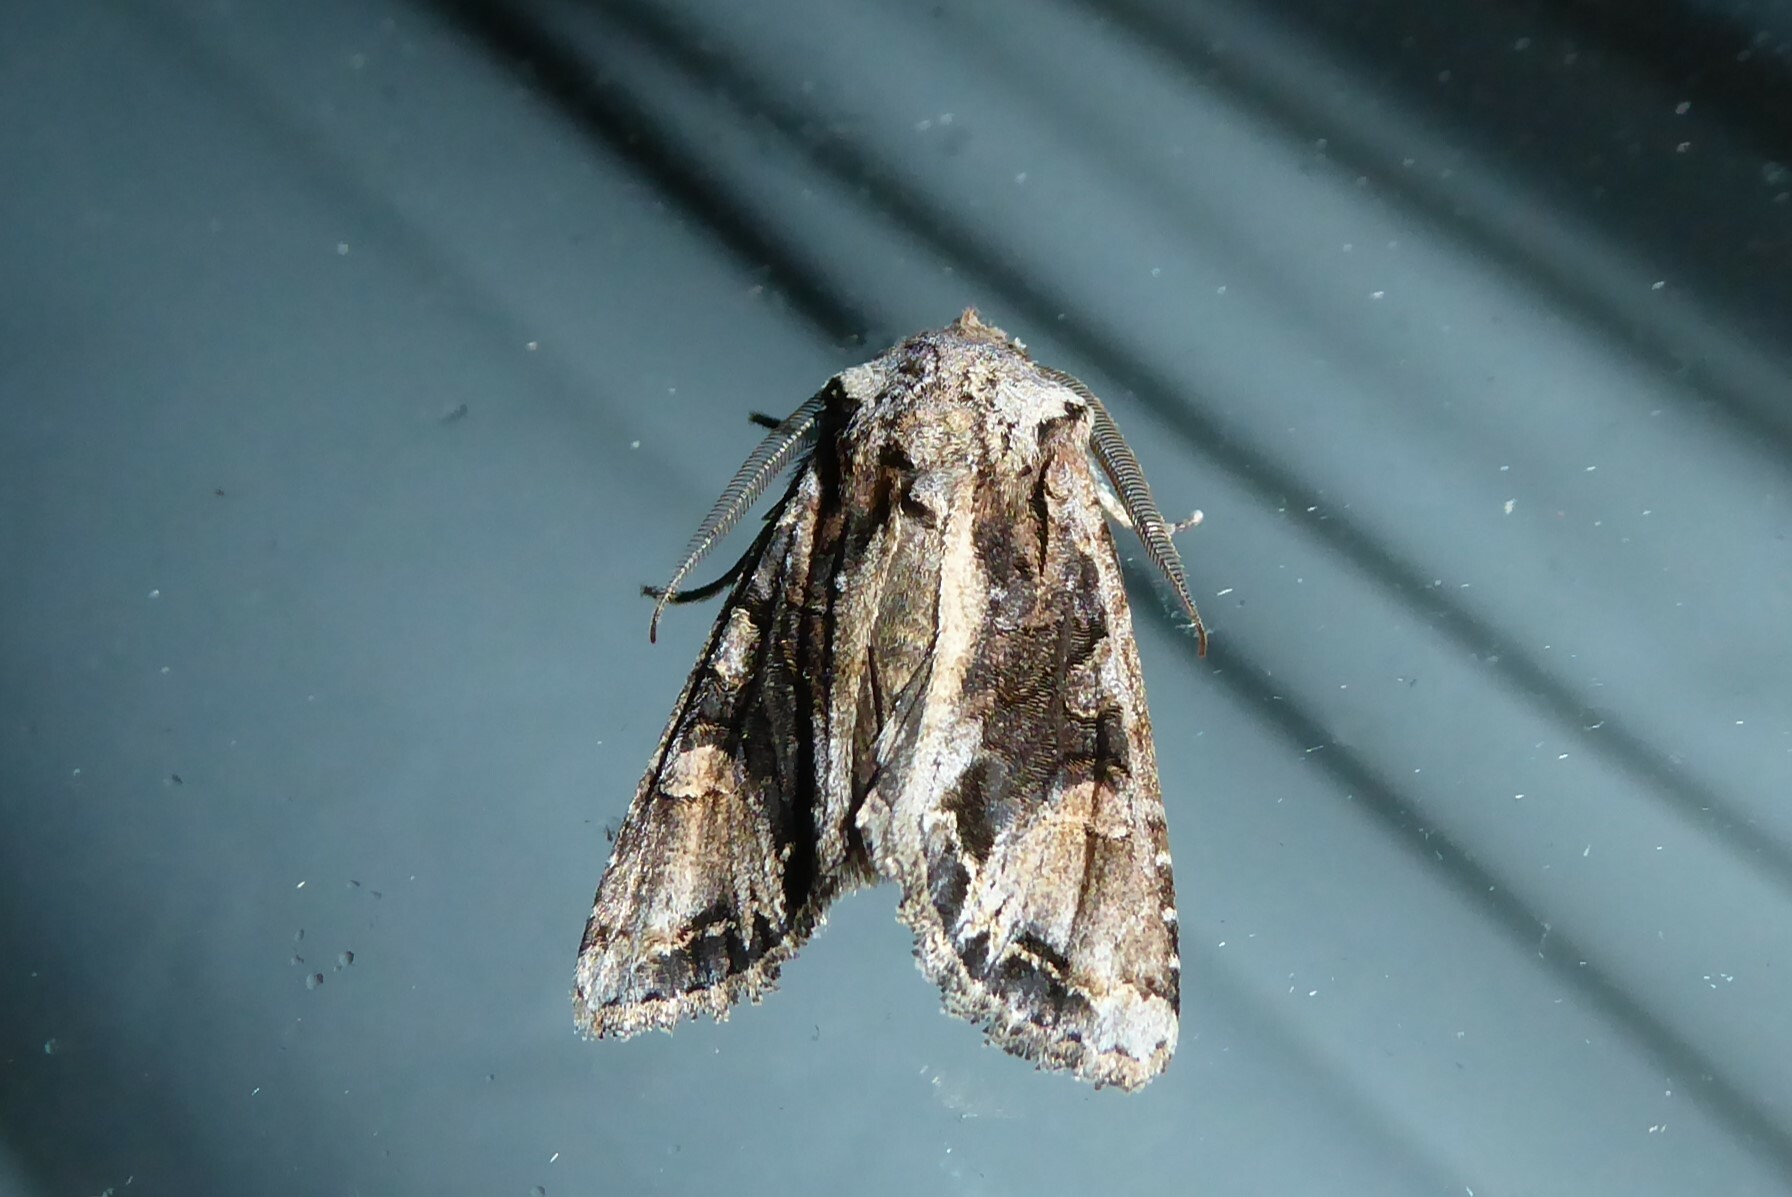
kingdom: Animalia
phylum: Arthropoda
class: Insecta
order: Lepidoptera
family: Noctuidae
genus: Ichneutica
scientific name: Ichneutica
